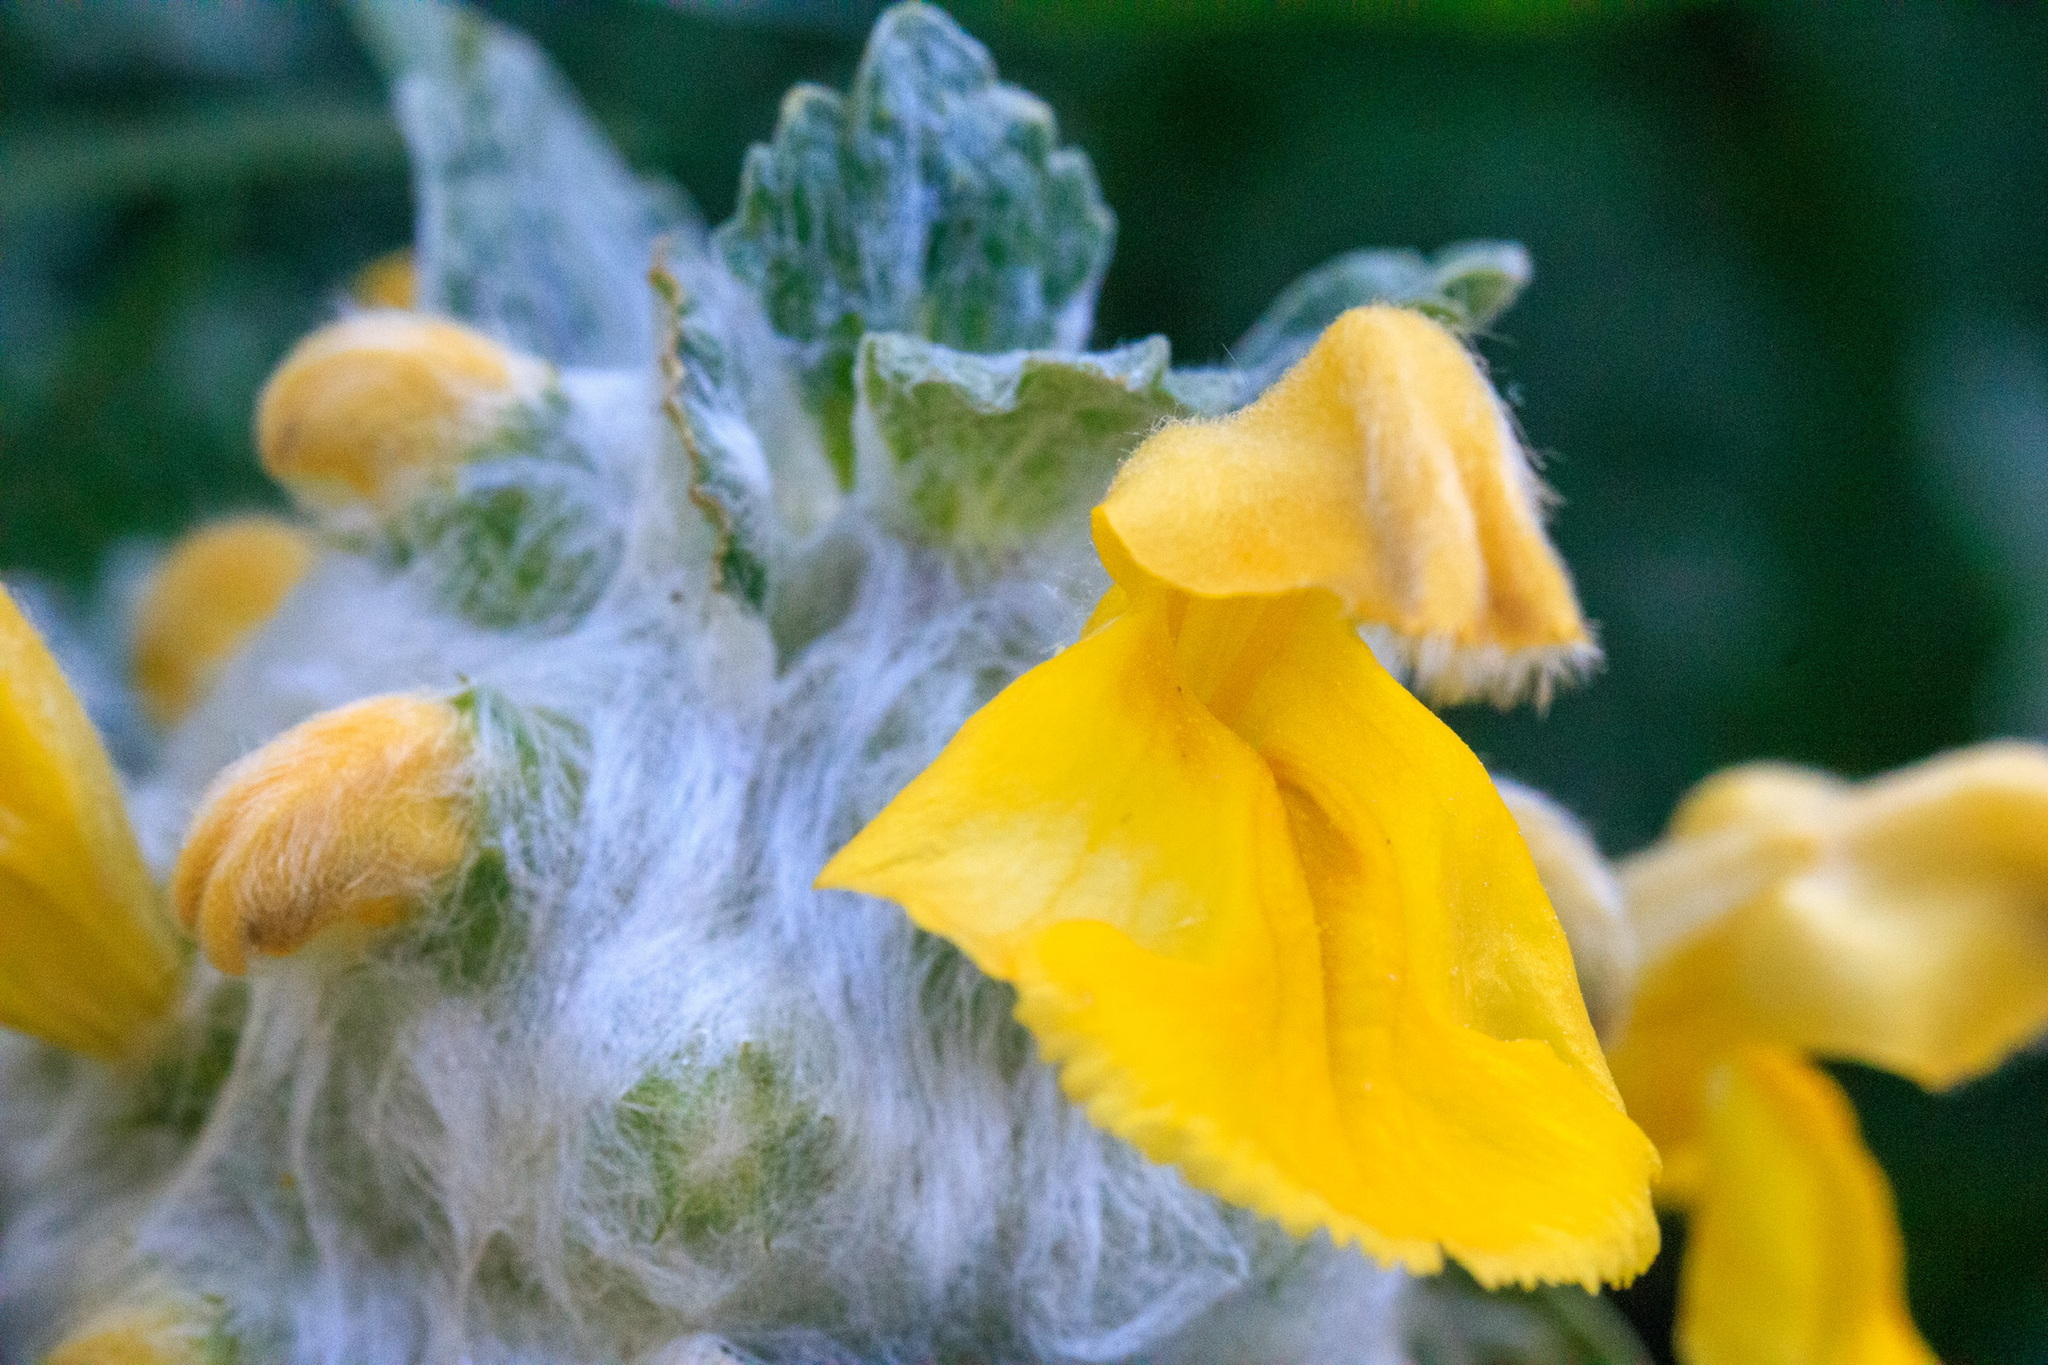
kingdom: Plantae
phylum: Tracheophyta
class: Magnoliopsida
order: Lamiales
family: Lamiaceae
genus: Phlomoides
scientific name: Phlomoides speciosa
